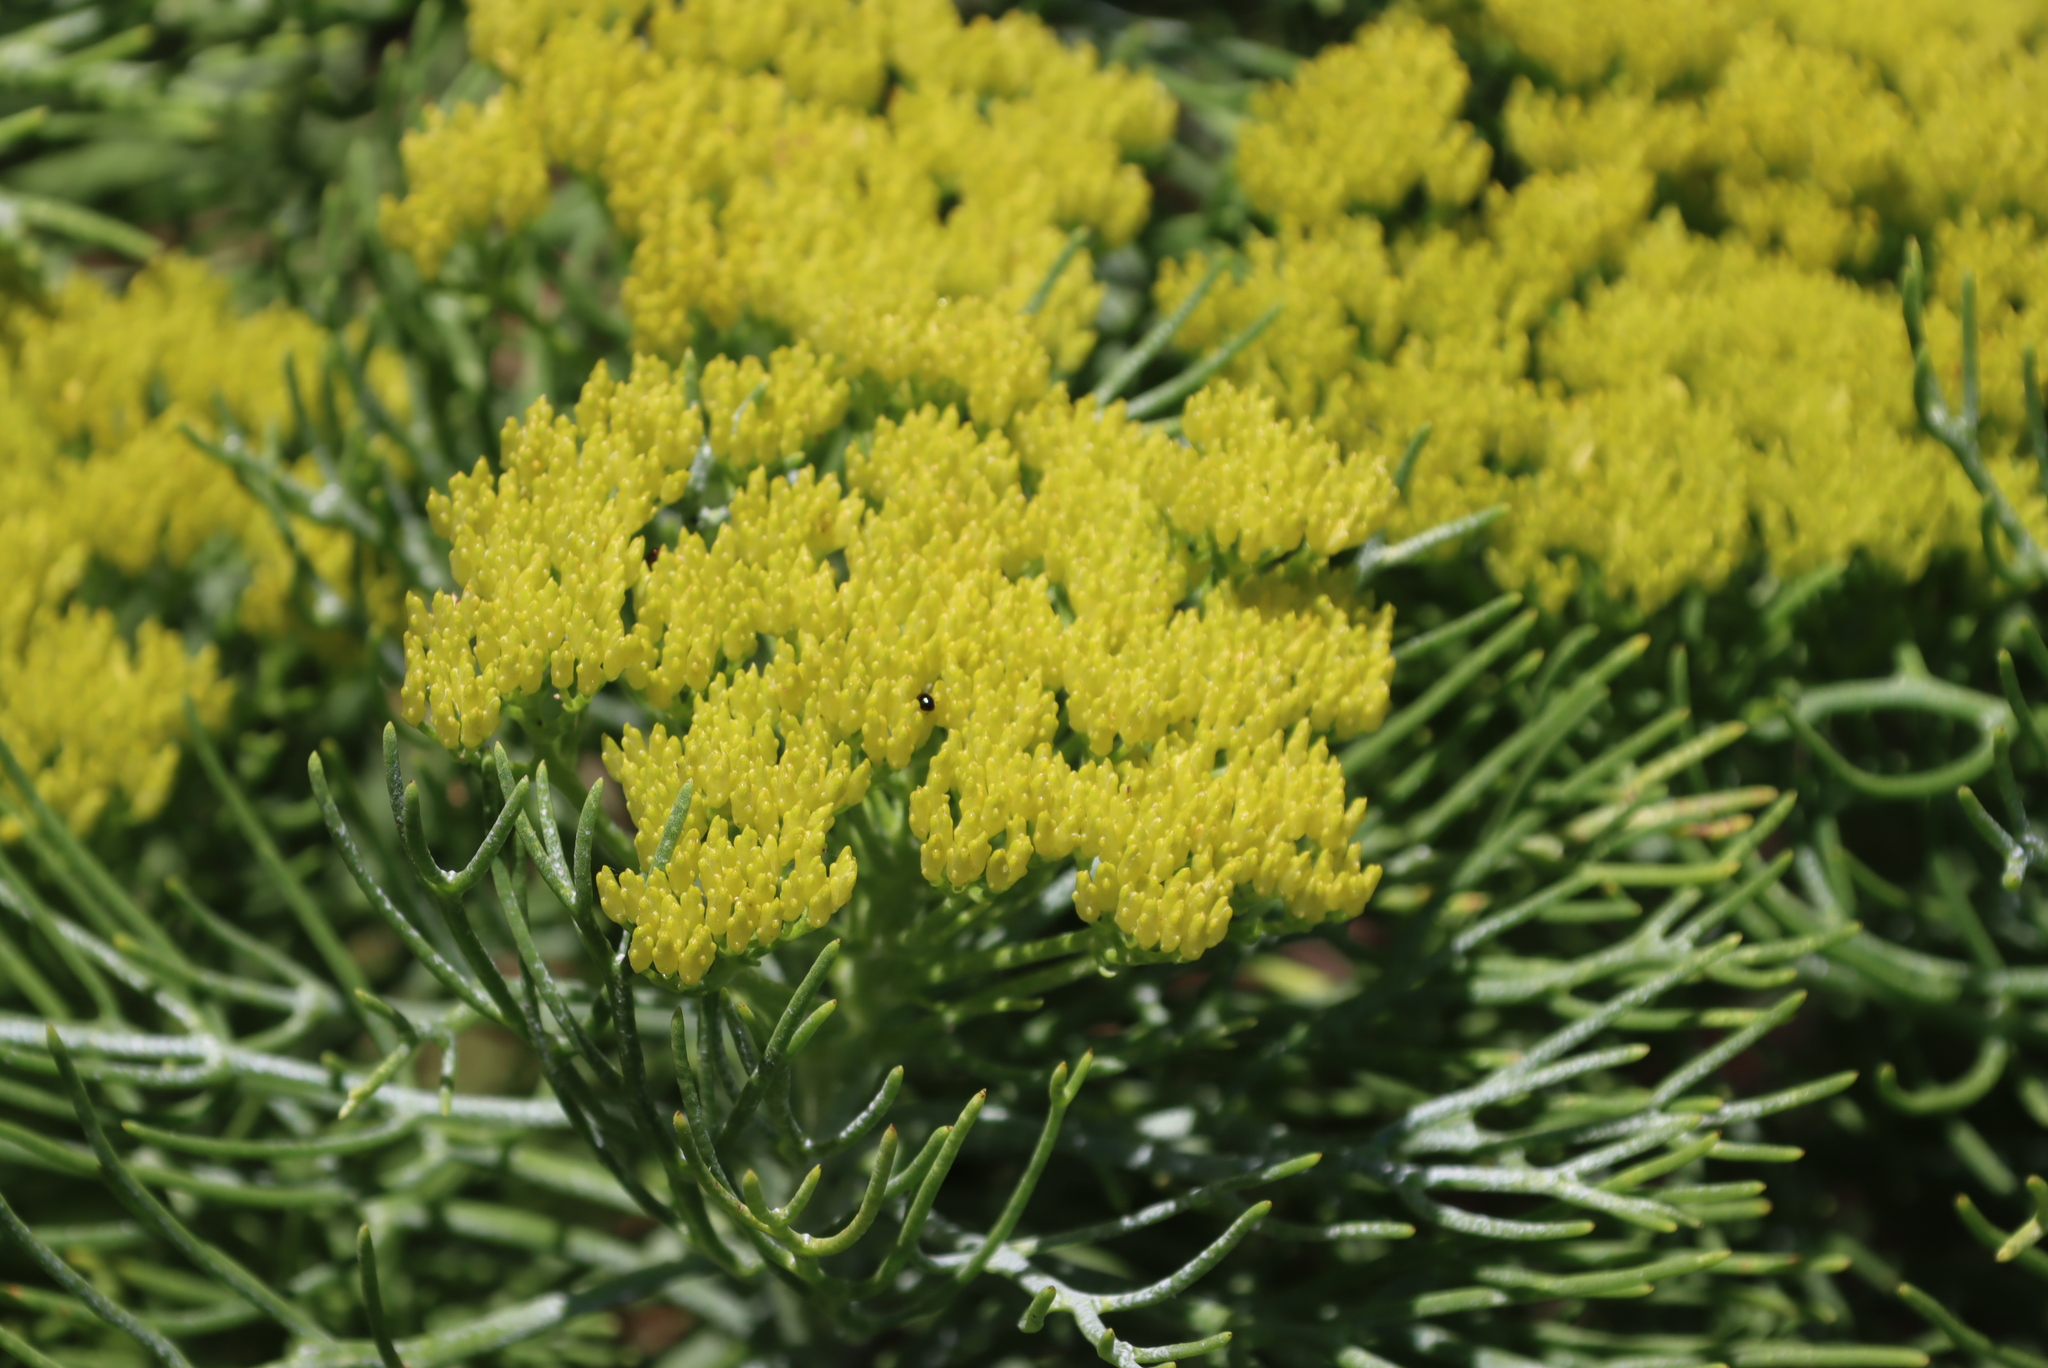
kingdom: Plantae
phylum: Tracheophyta
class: Magnoliopsida
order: Asterales
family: Asteraceae
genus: Athanasia
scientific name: Athanasia crithmifolia
